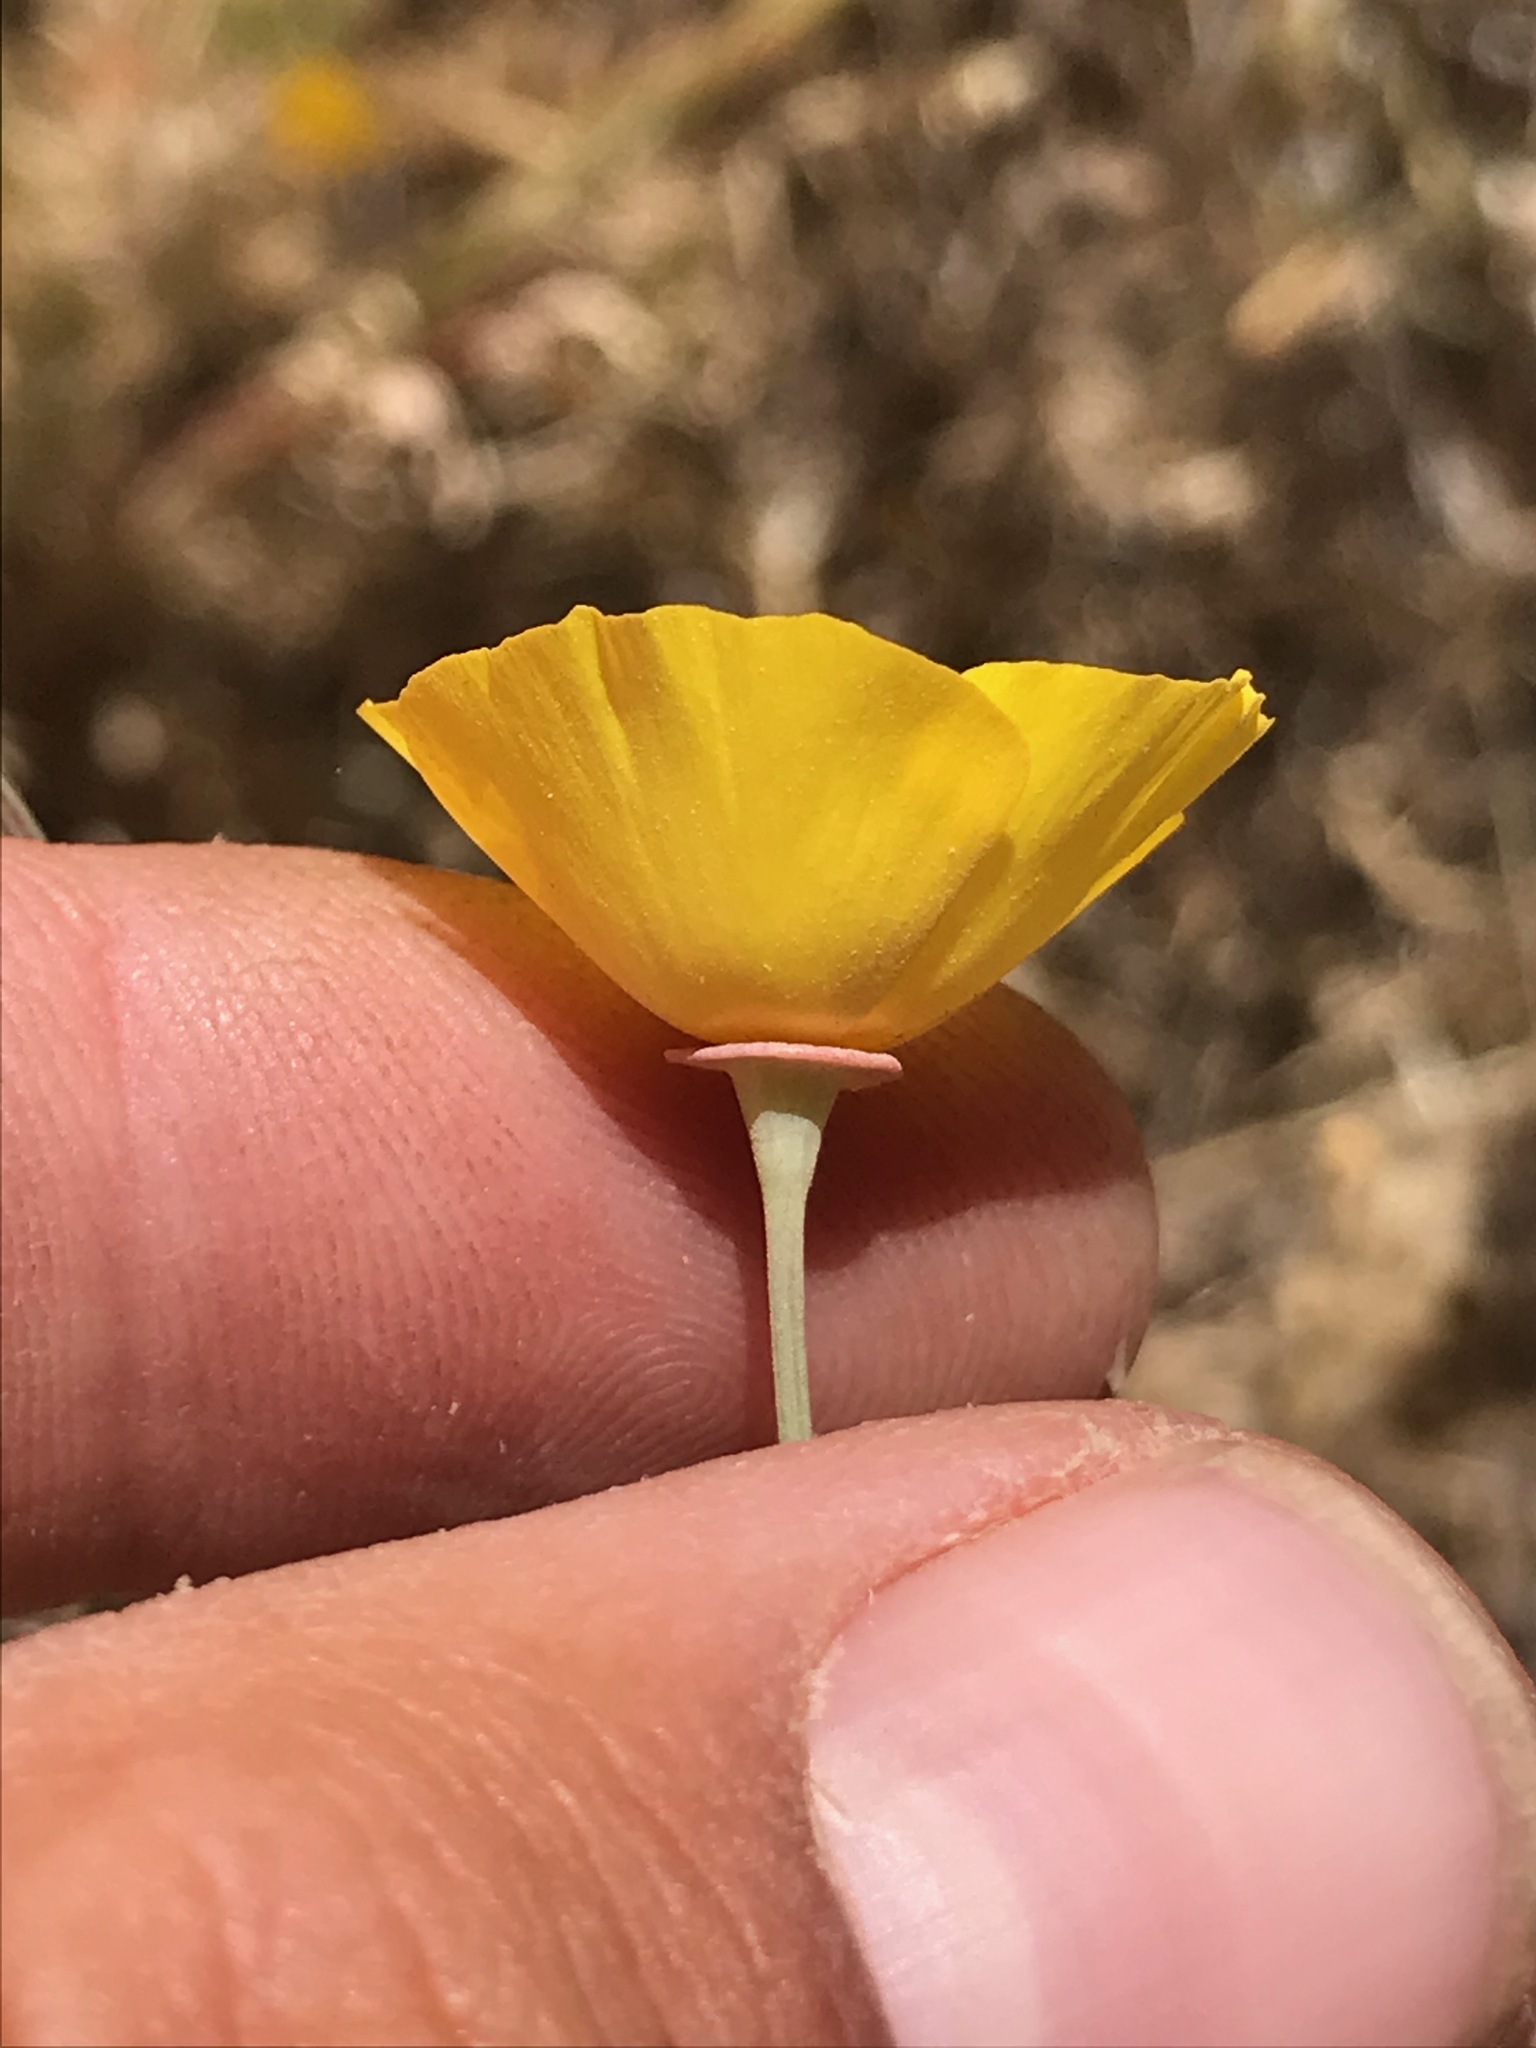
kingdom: Plantae
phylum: Tracheophyta
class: Magnoliopsida
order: Ranunculales
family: Papaveraceae
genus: Eschscholzia
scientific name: Eschscholzia californica
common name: California poppy
